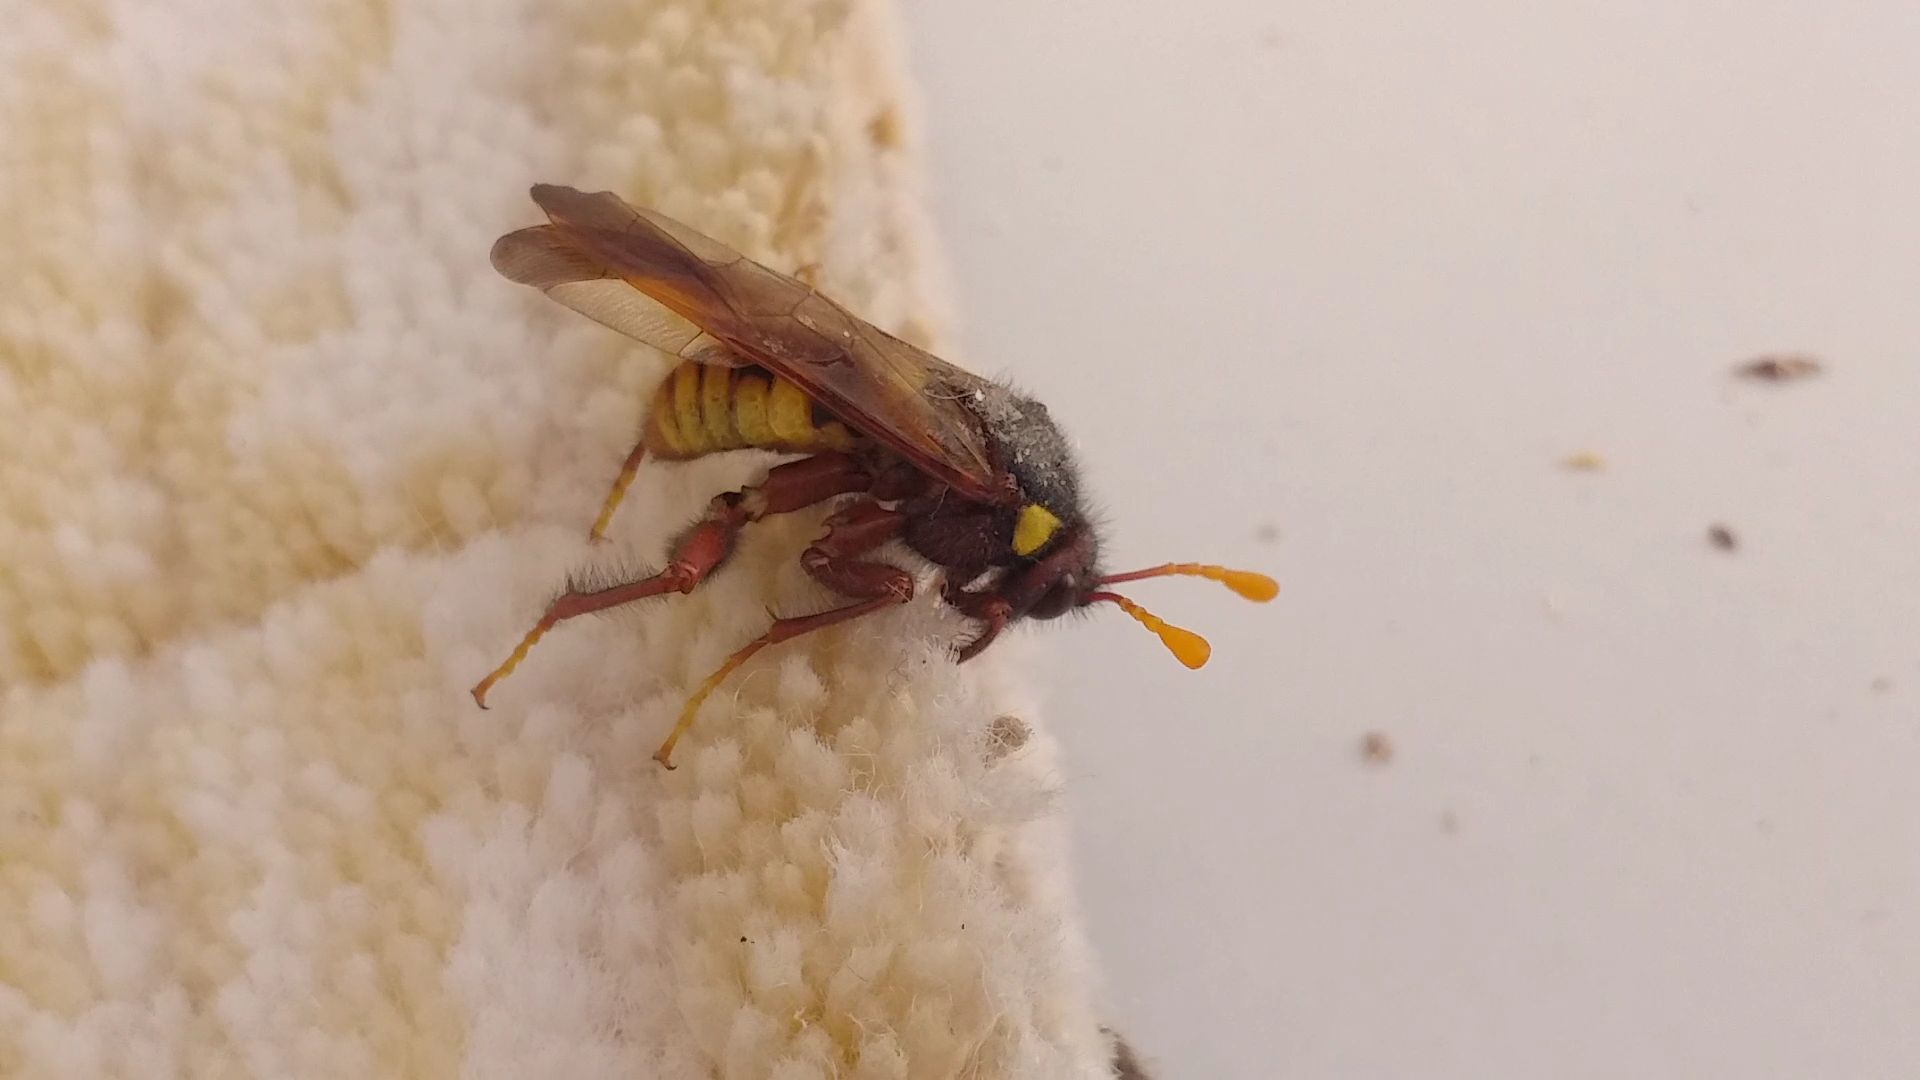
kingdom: Animalia
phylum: Arthropoda
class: Insecta
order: Hymenoptera
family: Cimbicidae
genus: Cimbex
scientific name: Cimbex quadrimaculatus
